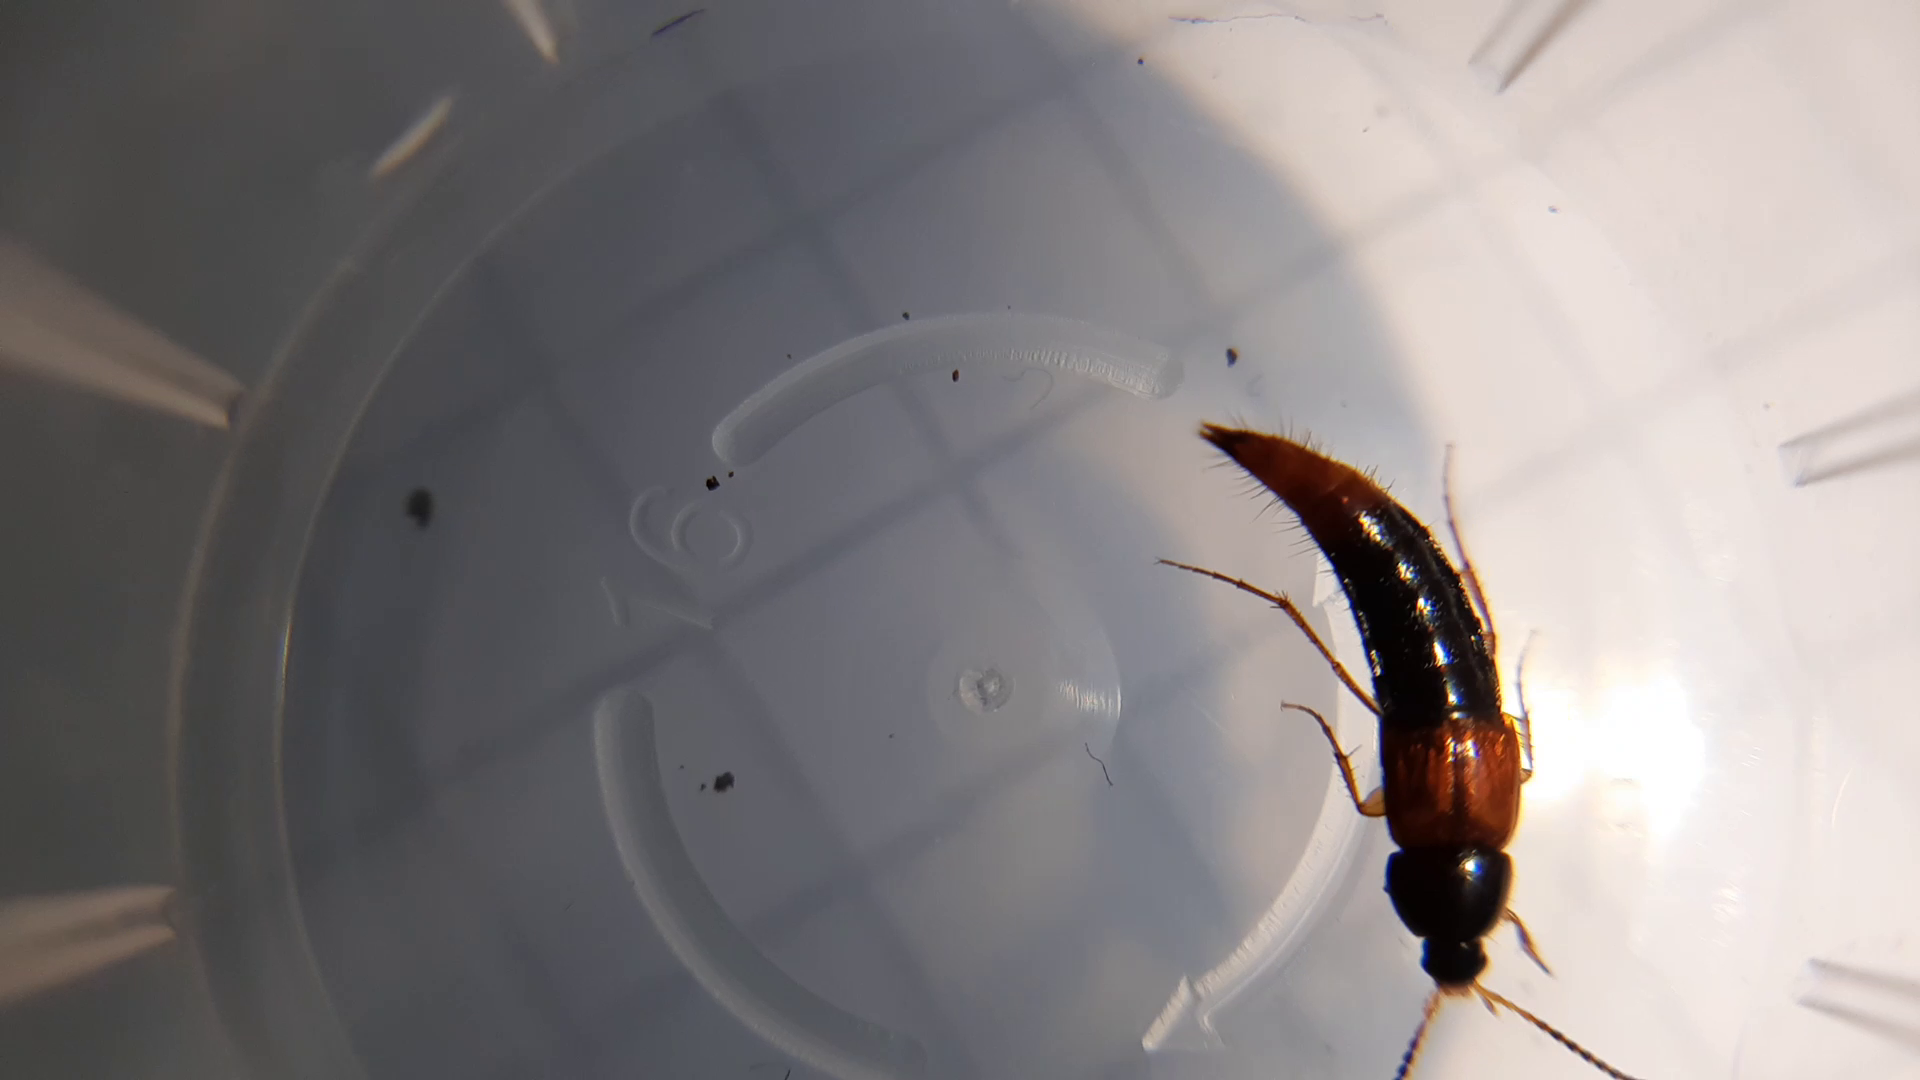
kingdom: Animalia
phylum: Arthropoda
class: Insecta
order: Coleoptera
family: Staphylinidae
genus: Bolitobius
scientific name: Bolitobius castaneus
